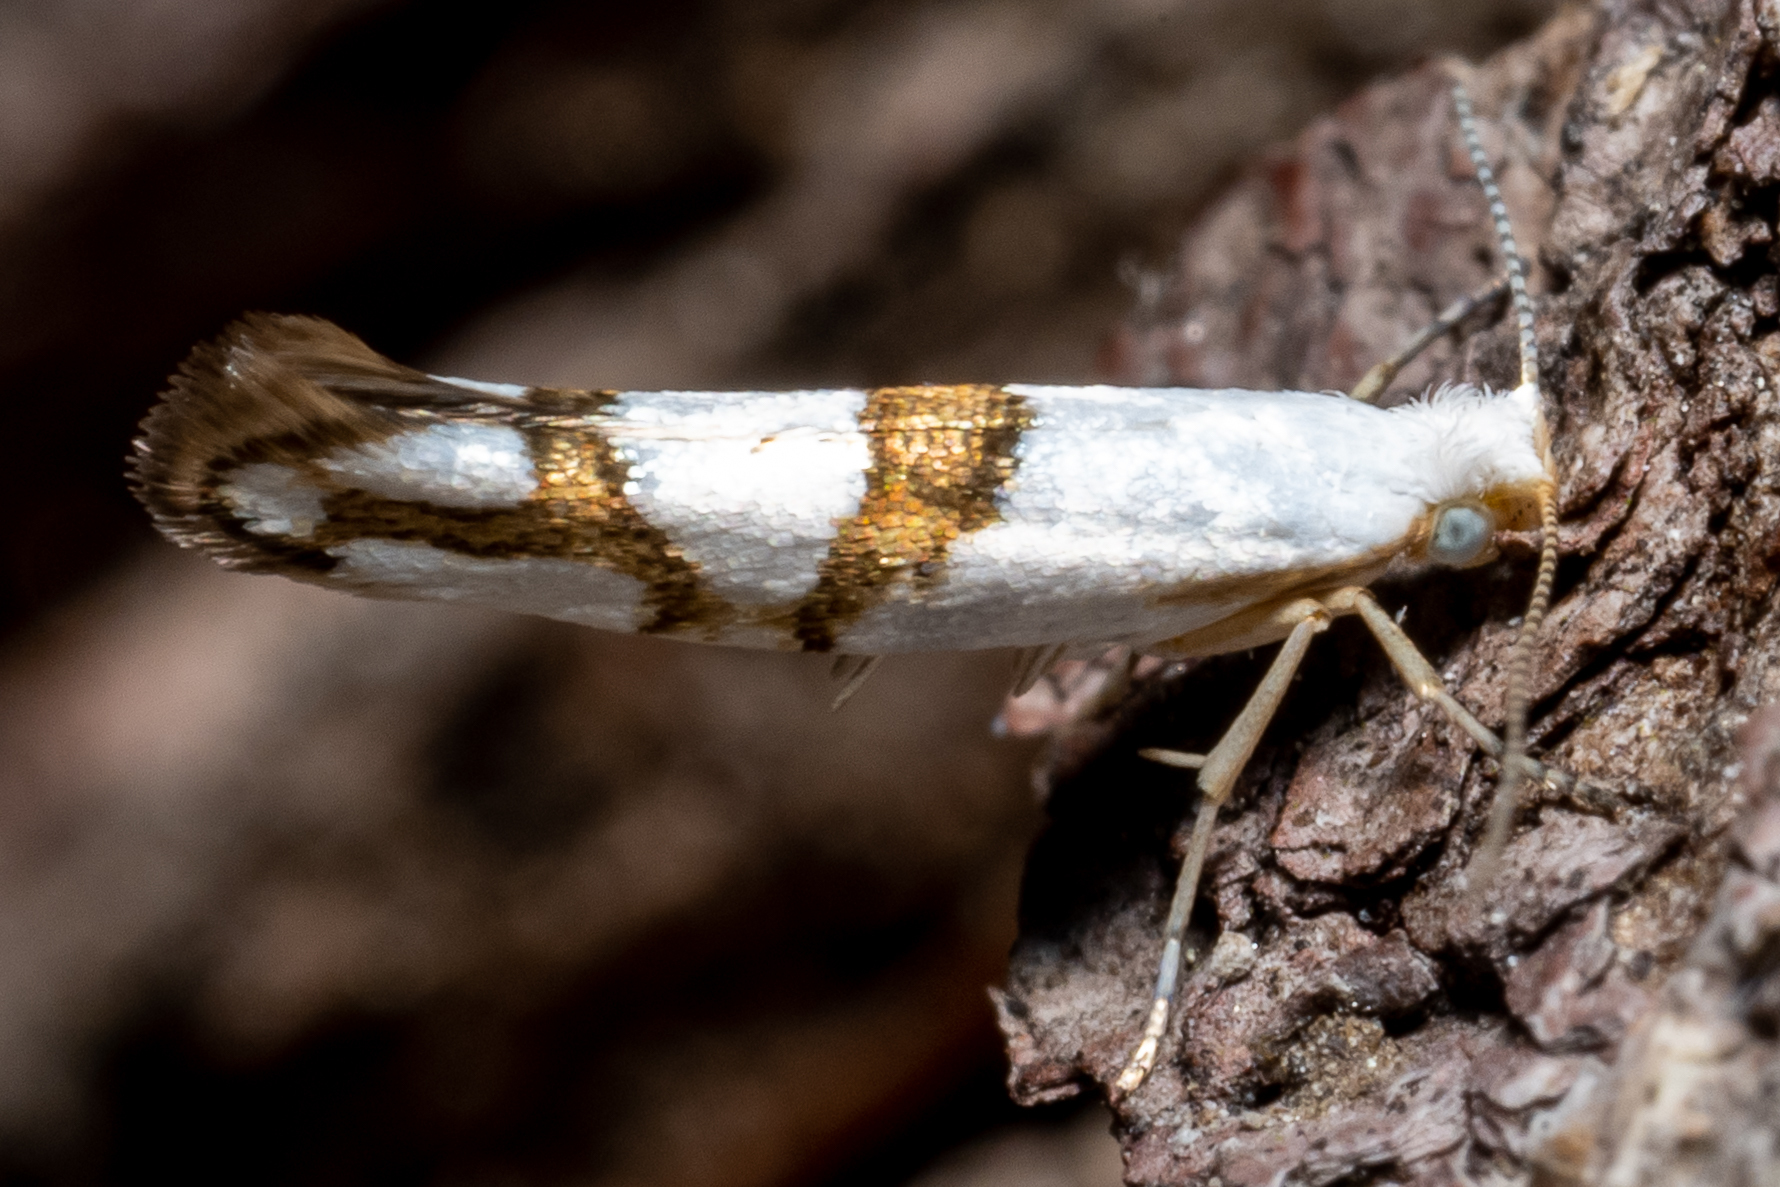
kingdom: Animalia
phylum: Arthropoda
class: Insecta
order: Lepidoptera
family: Argyresthiidae
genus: Argyresthia
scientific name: Argyresthia oreasella
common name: Cherry shoot borer moth
